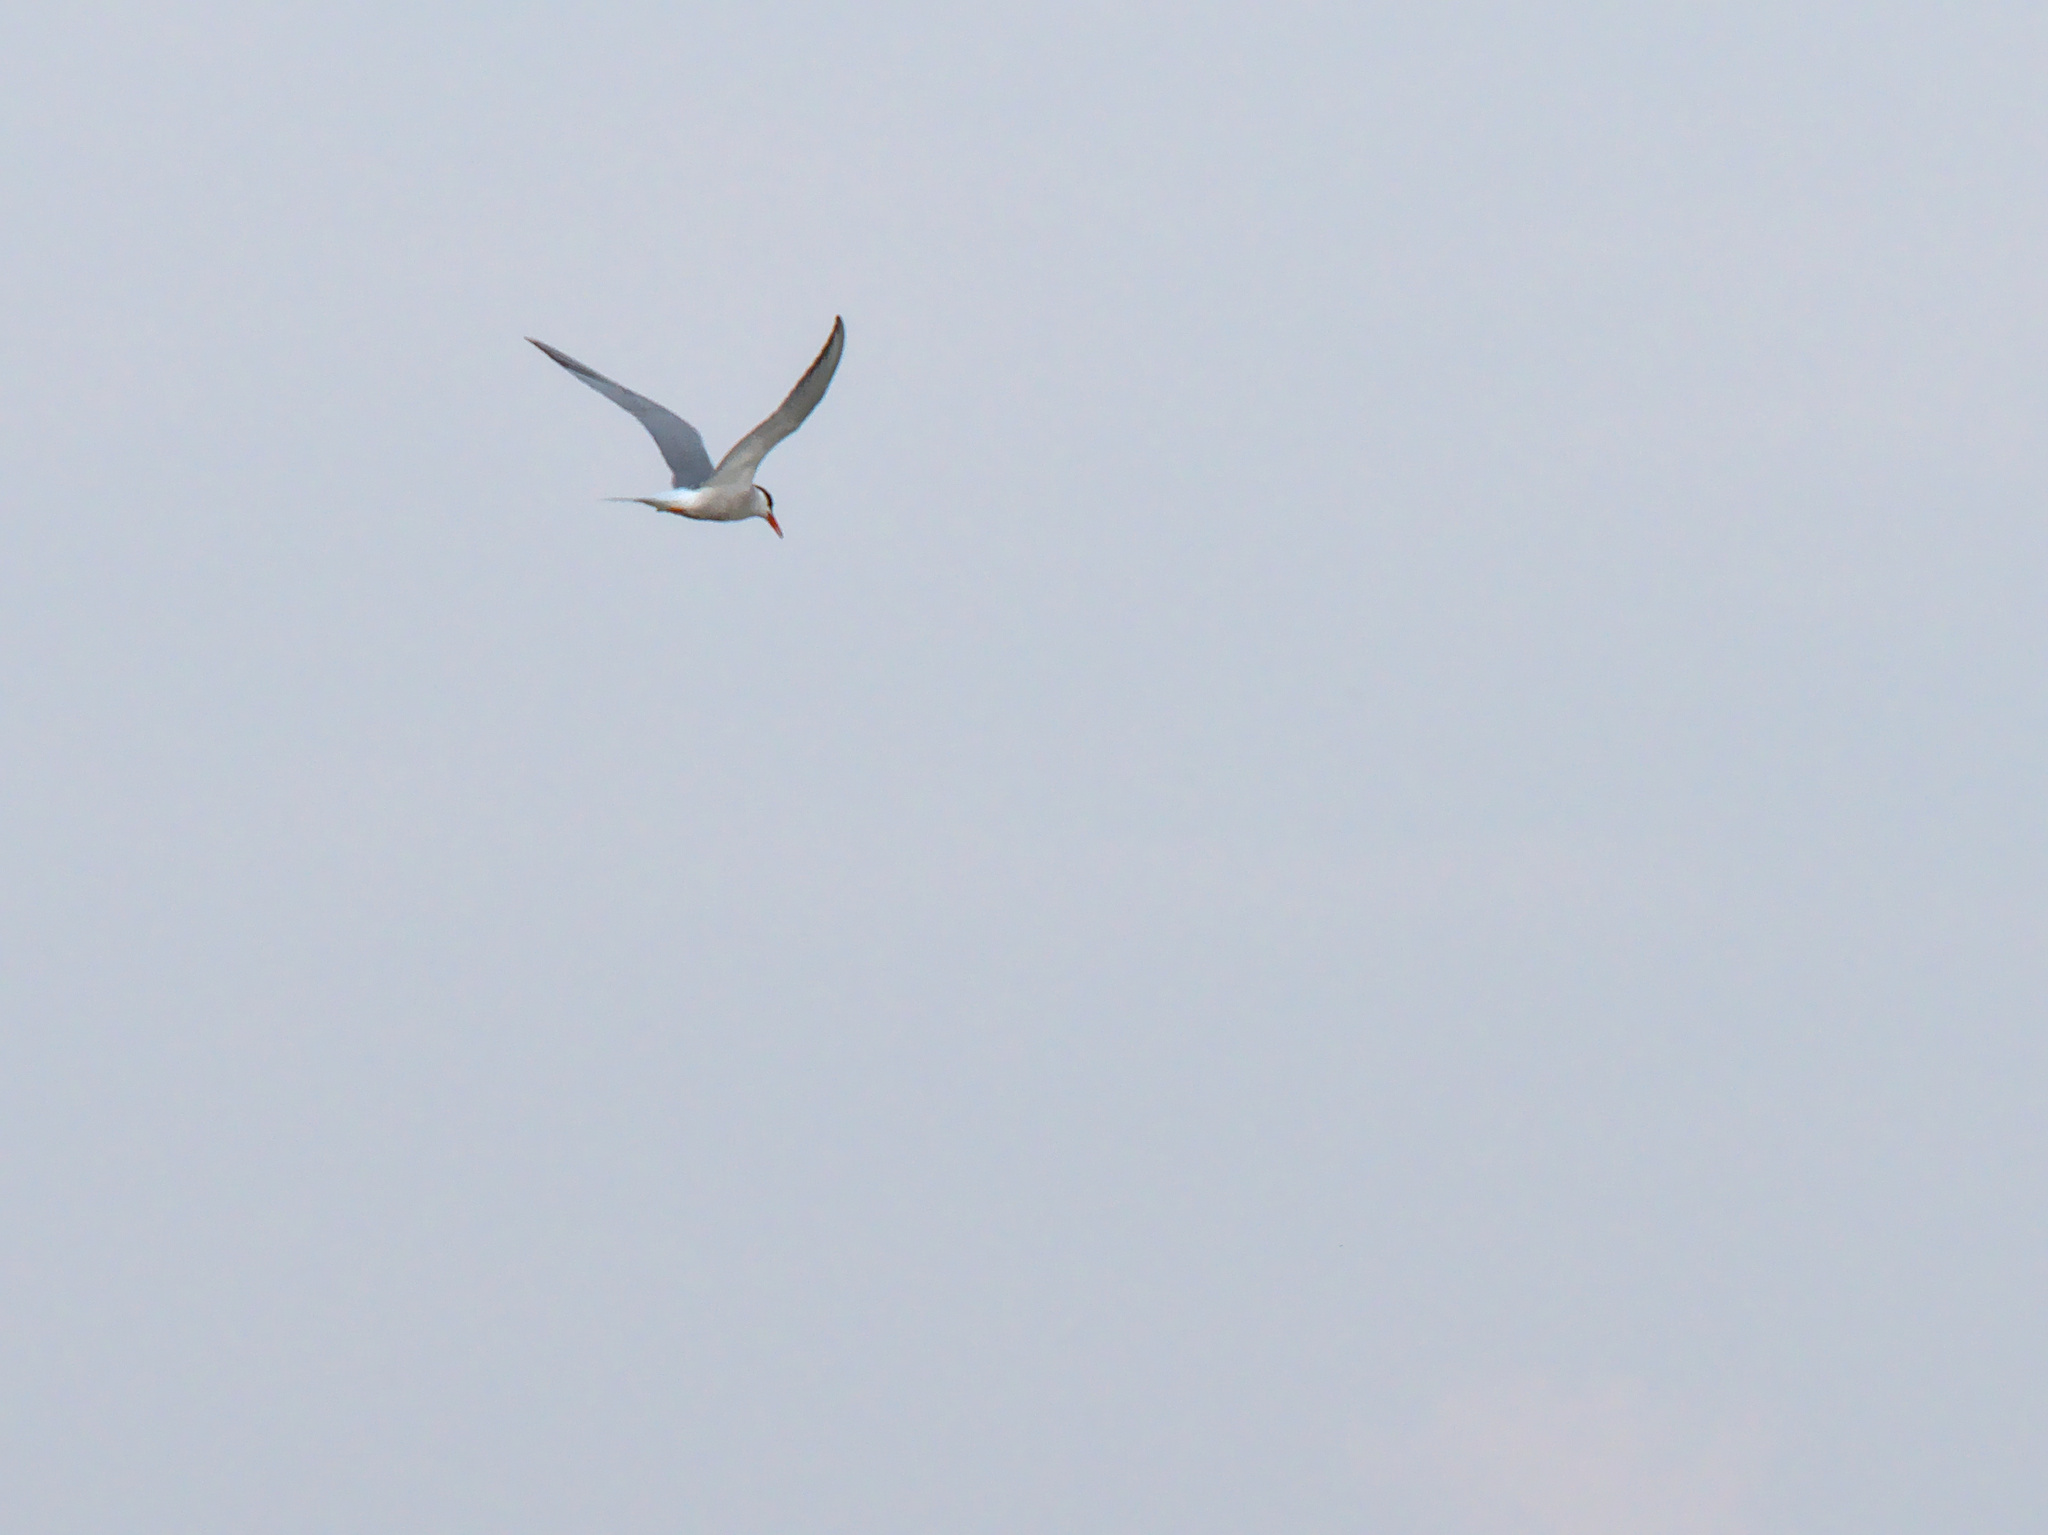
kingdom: Animalia
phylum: Chordata
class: Aves
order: Charadriiformes
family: Laridae
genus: Sterna
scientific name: Sterna hirundo
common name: Common tern
